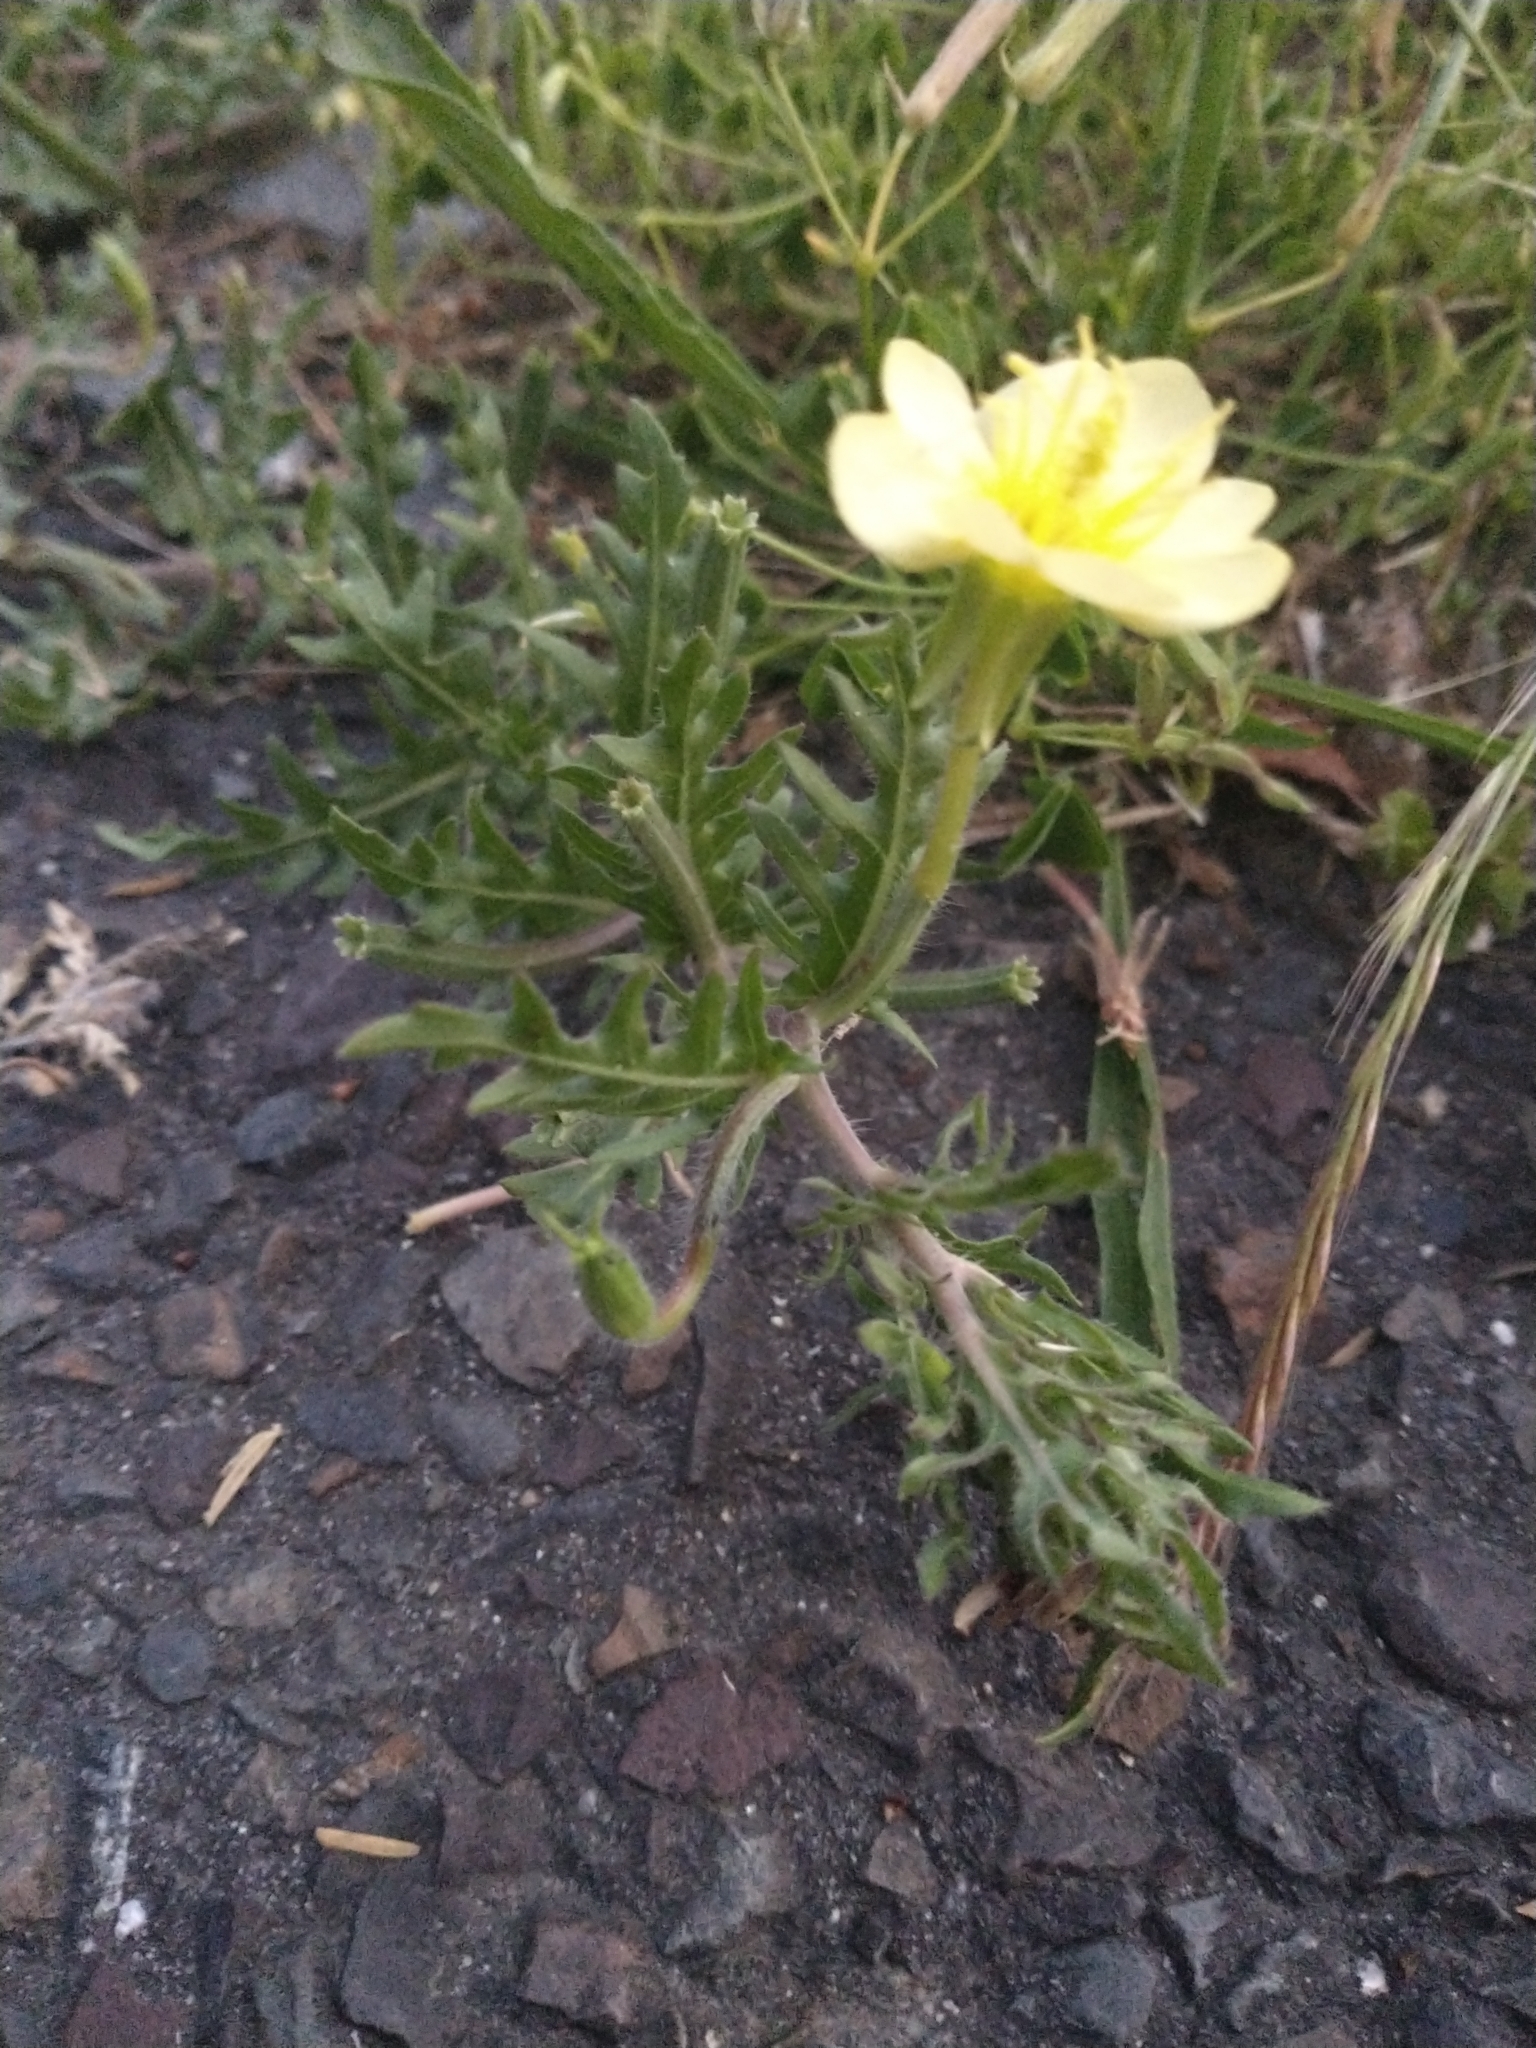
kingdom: Plantae
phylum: Tracheophyta
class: Magnoliopsida
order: Myrtales
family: Onagraceae
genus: Oenothera
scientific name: Oenothera laciniata
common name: Cut-leaved evening-primrose
